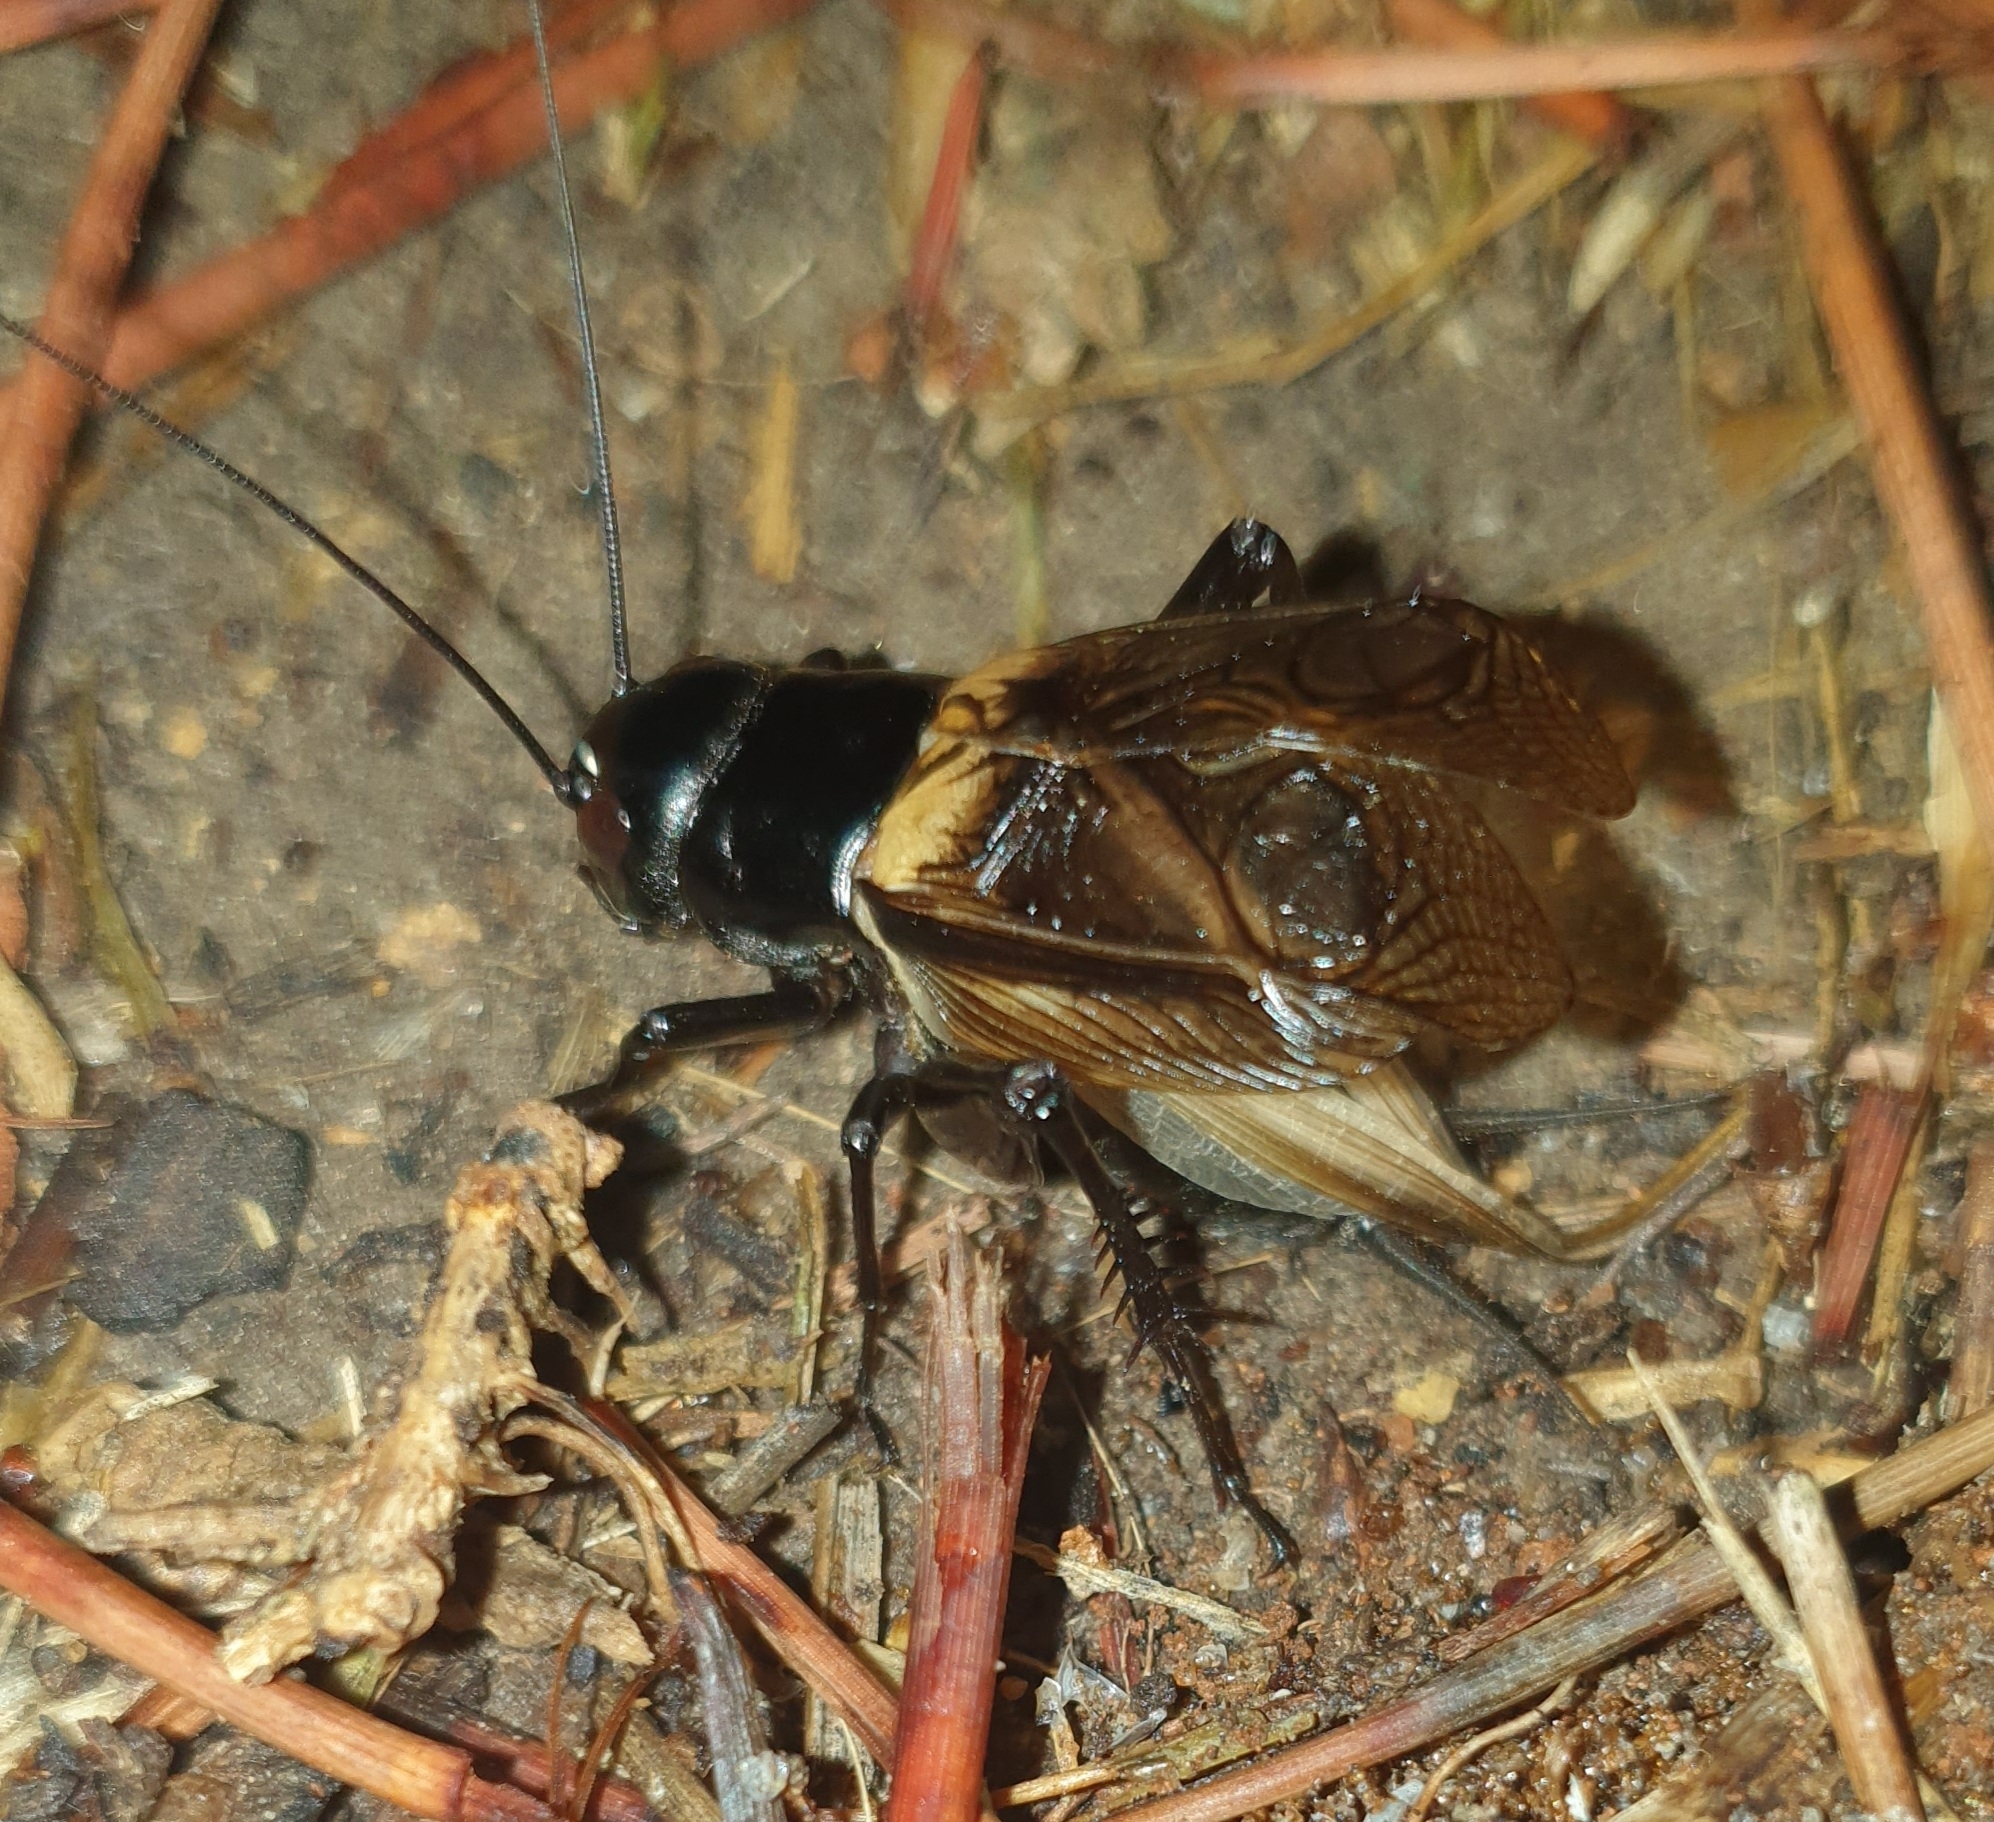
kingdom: Animalia
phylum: Arthropoda
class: Insecta
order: Orthoptera
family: Gryllidae
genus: Gryllus
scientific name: Gryllus bimaculatus
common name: Two-spotted cricket
